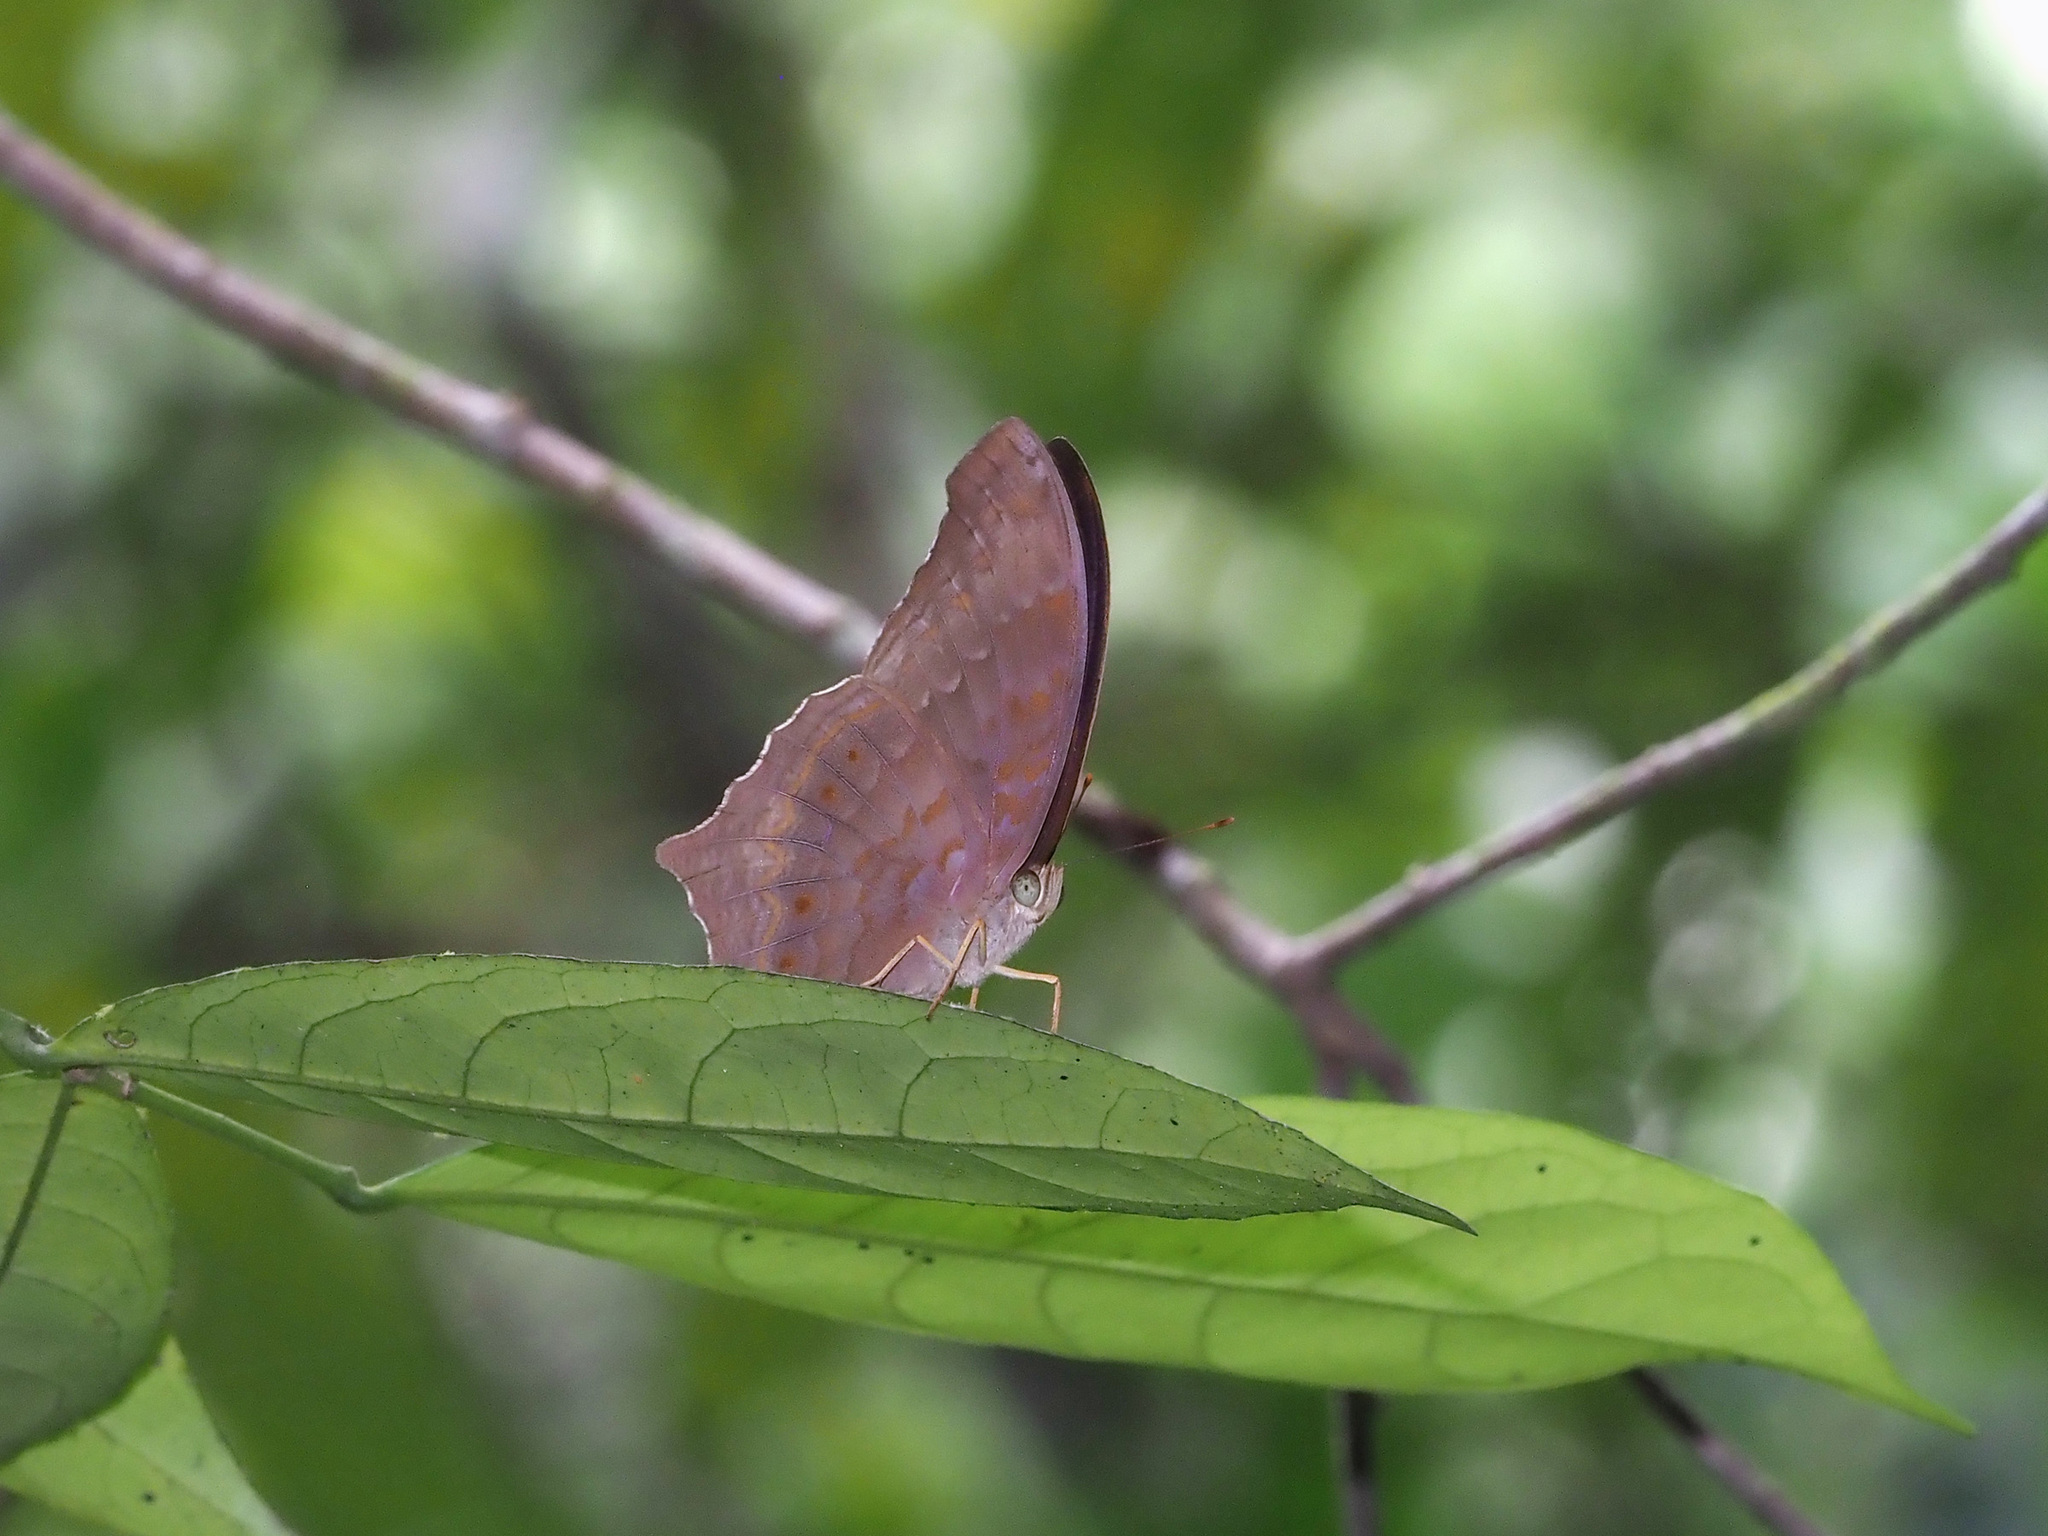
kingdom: Animalia
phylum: Arthropoda
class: Insecta
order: Lepidoptera
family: Nymphalidae
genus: Terinos
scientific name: Terinos atlita
